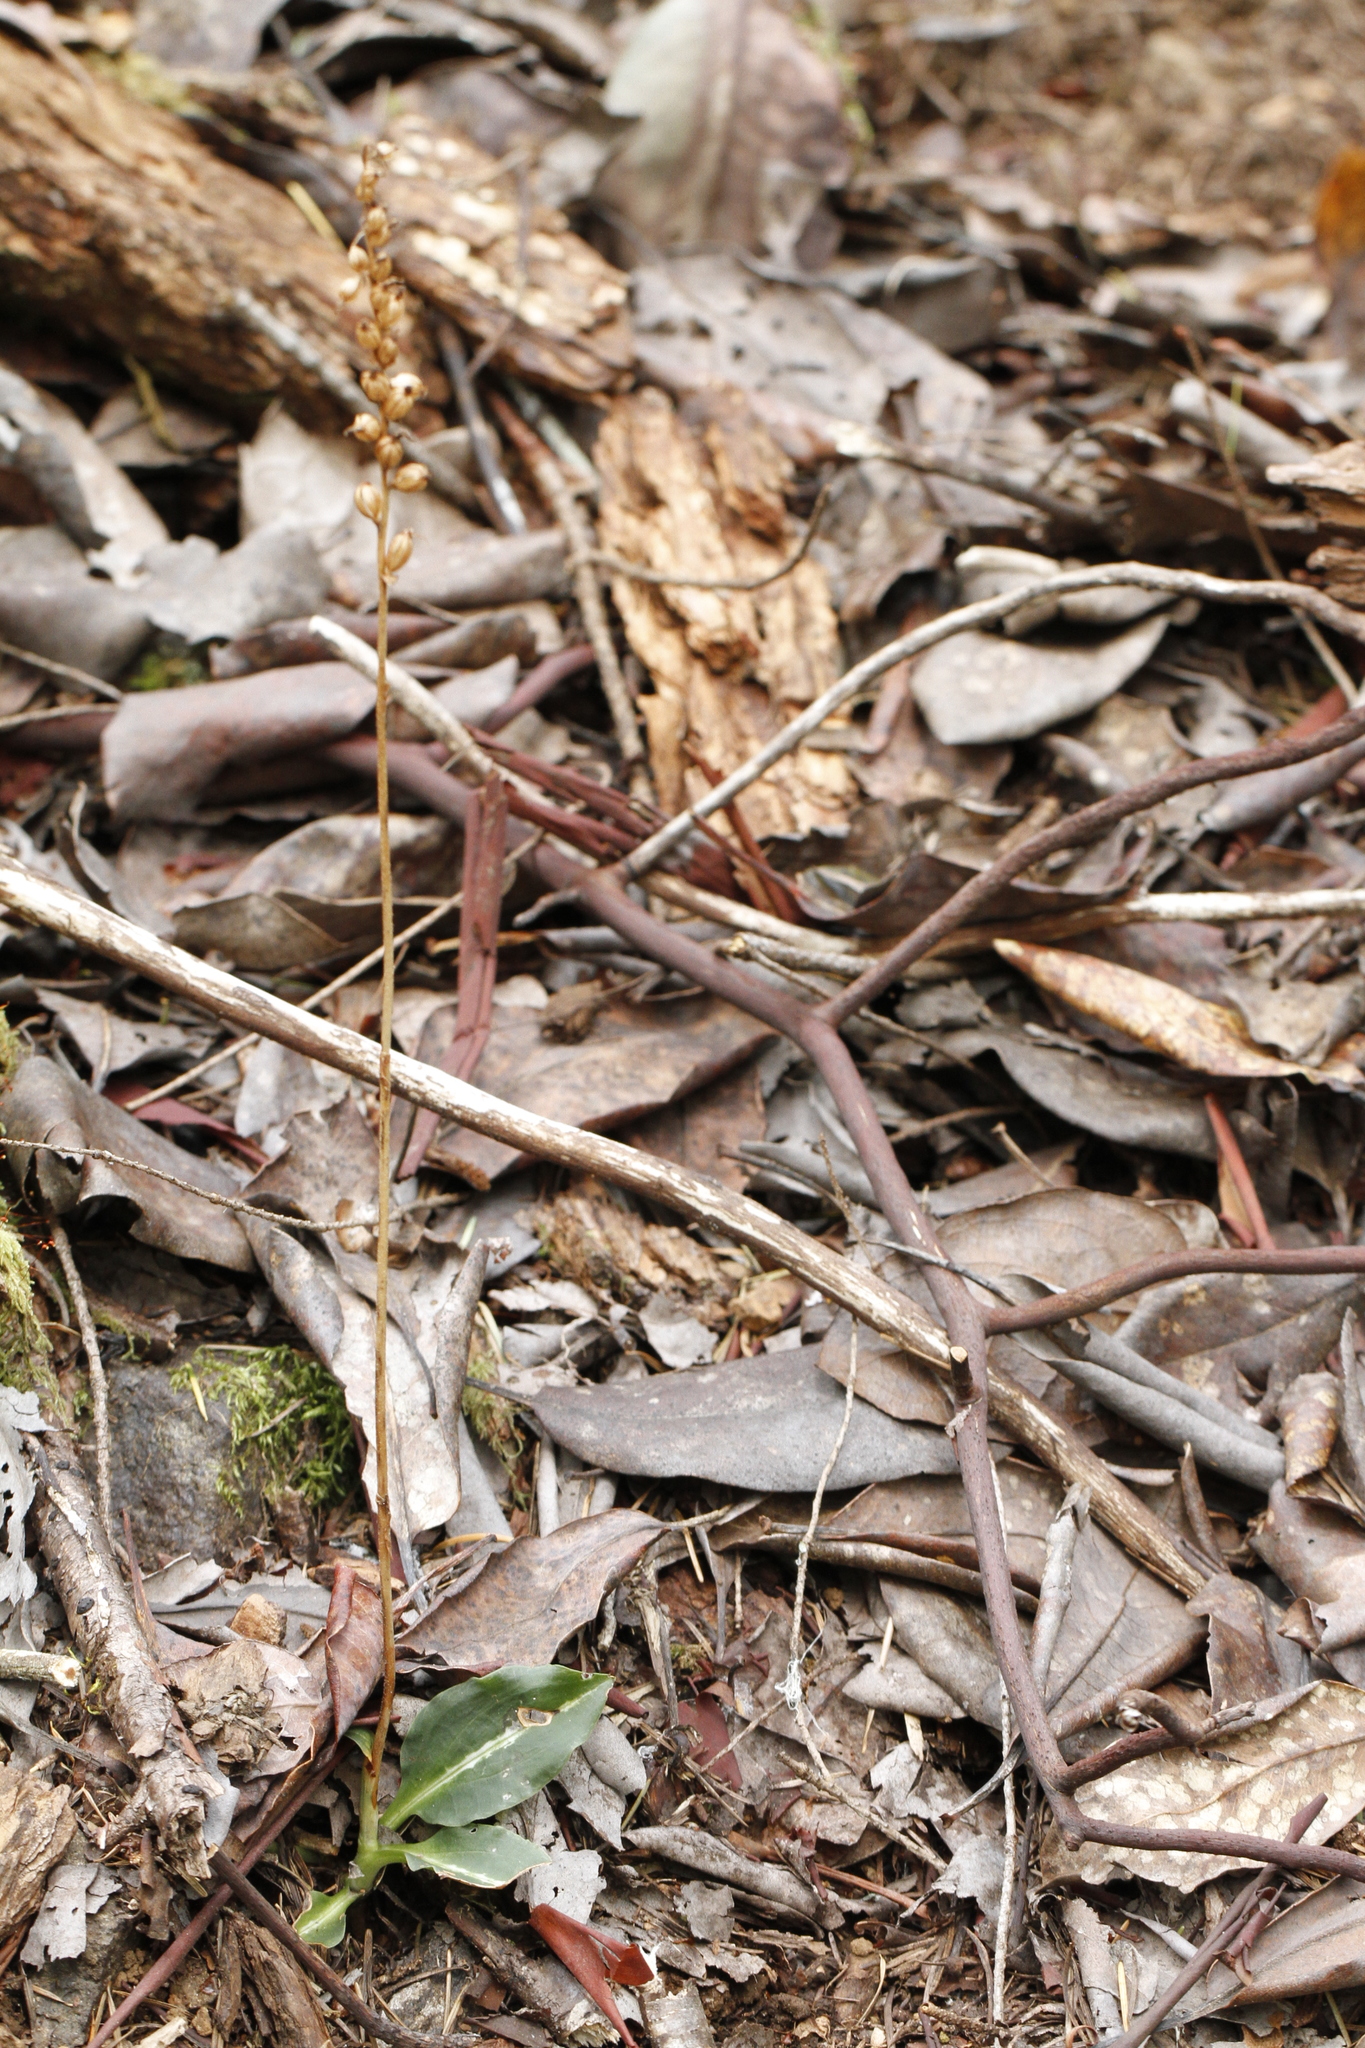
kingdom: Plantae
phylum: Tracheophyta
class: Liliopsida
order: Asparagales
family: Orchidaceae
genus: Goodyera
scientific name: Goodyera oblongifolia
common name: Giant rattlesnake-plantain
